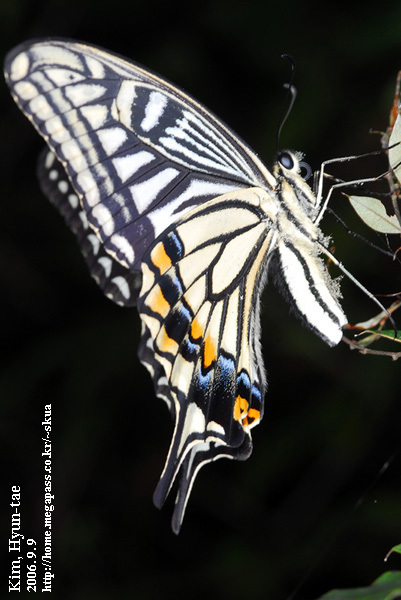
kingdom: Animalia
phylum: Arthropoda
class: Insecta
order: Lepidoptera
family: Papilionidae
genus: Papilio
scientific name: Papilio xuthus
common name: Asian swallowtail
